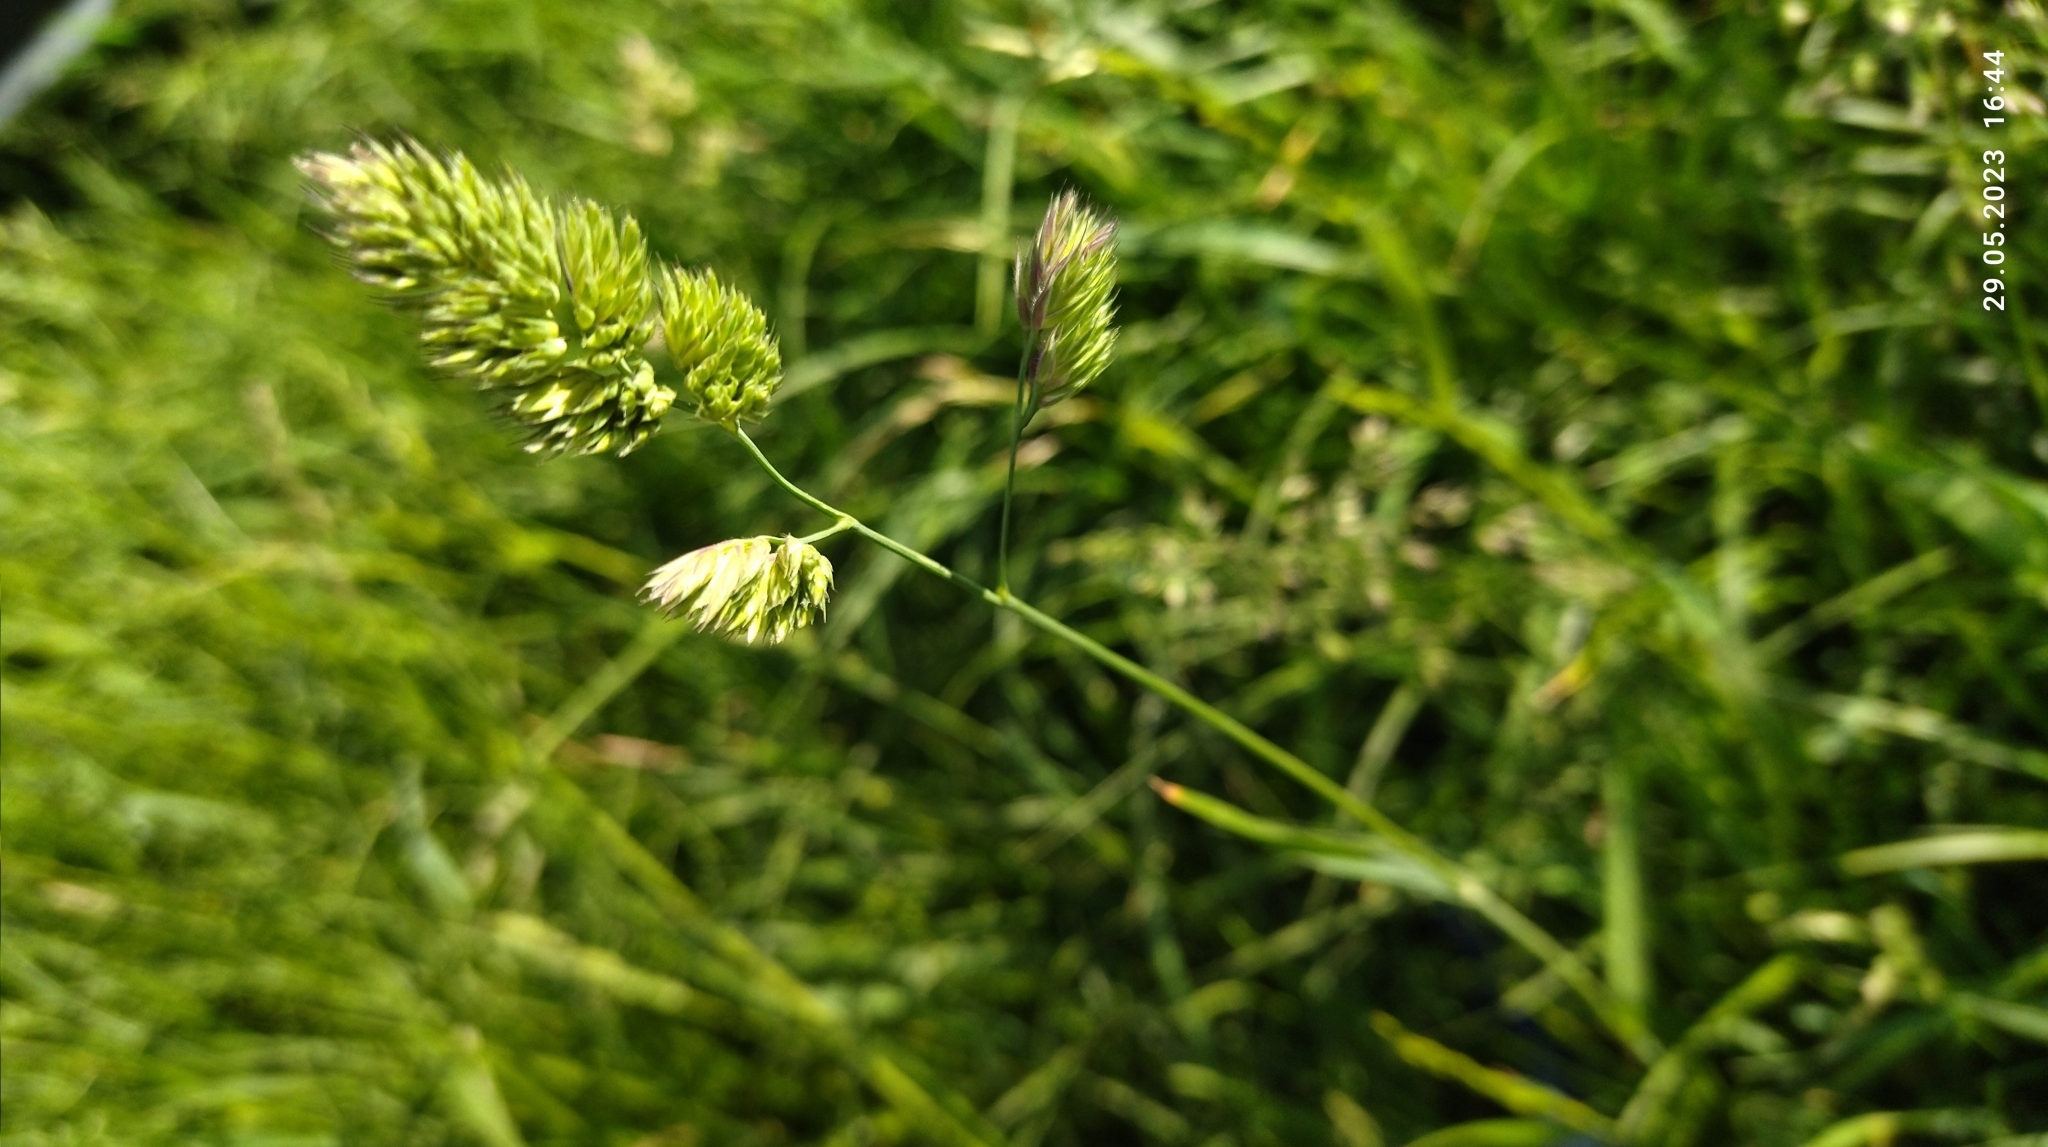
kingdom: Plantae
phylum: Tracheophyta
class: Liliopsida
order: Poales
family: Poaceae
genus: Dactylis
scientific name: Dactylis glomerata
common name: Orchardgrass
